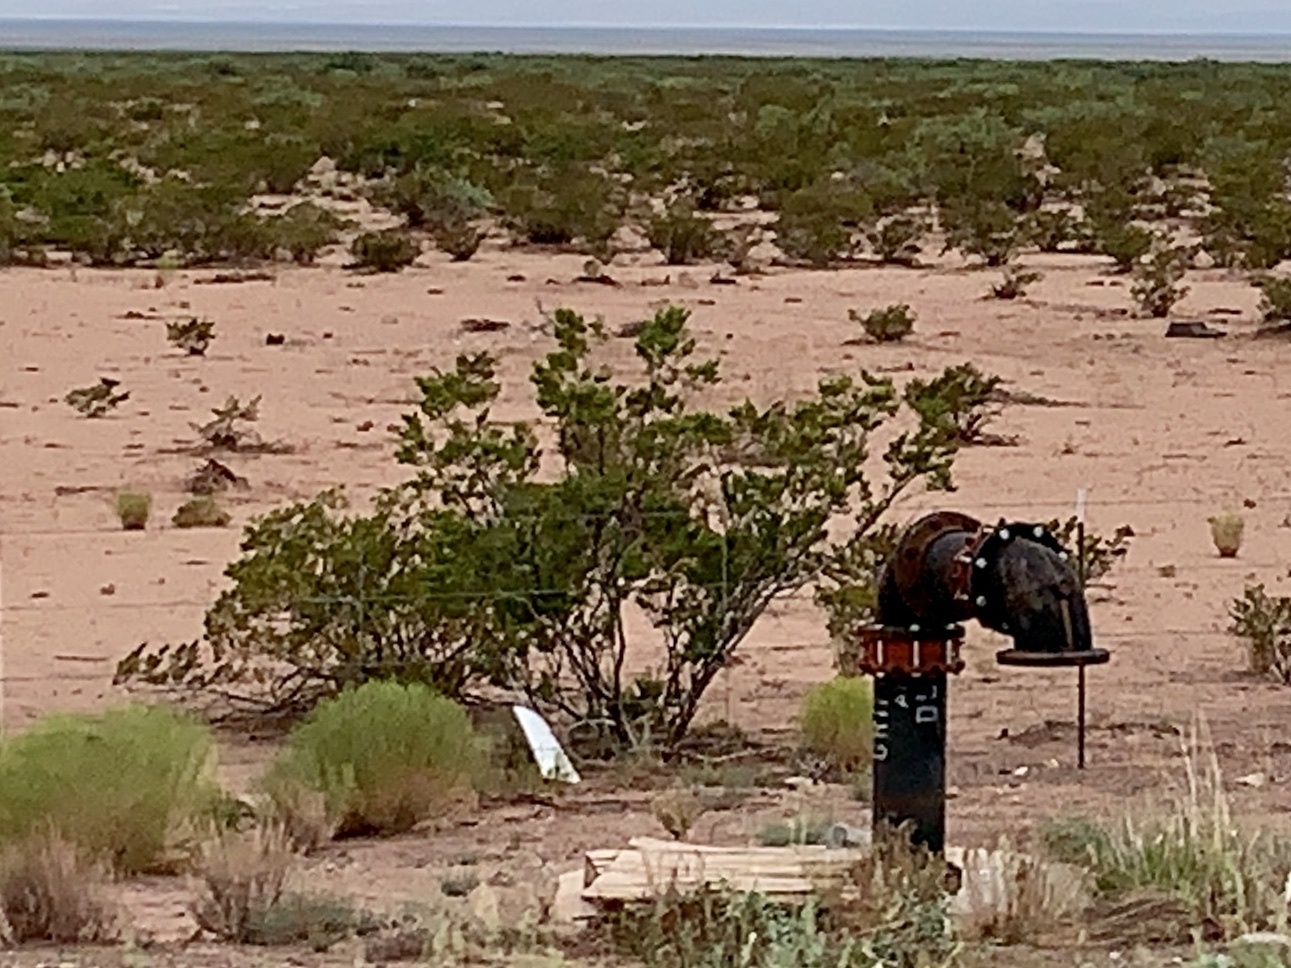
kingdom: Plantae
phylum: Tracheophyta
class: Magnoliopsida
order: Zygophyllales
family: Zygophyllaceae
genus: Larrea
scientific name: Larrea tridentata
